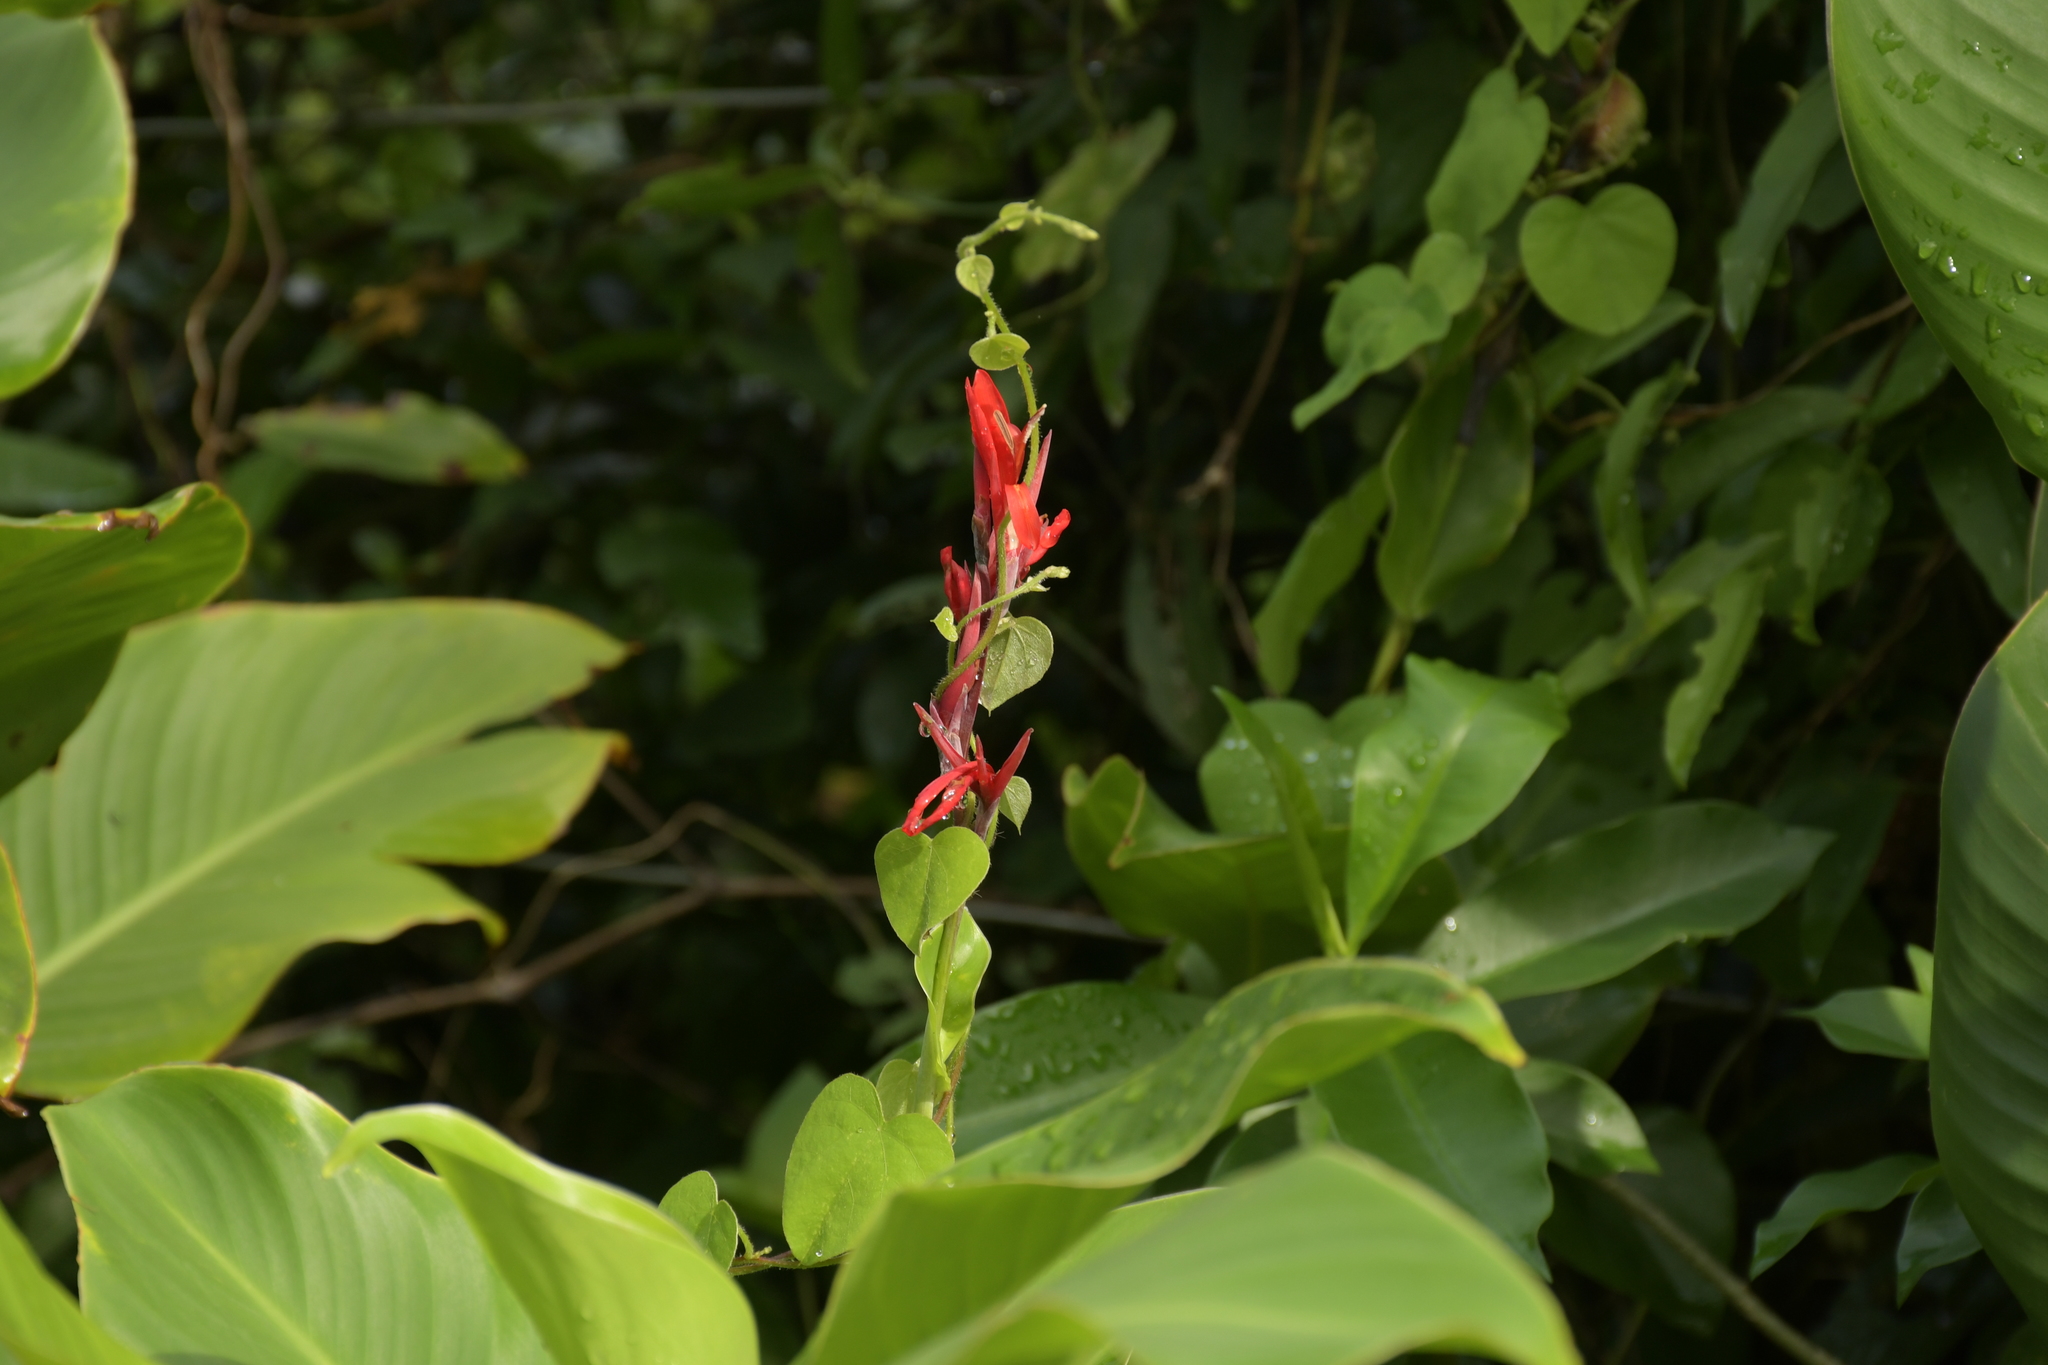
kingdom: Plantae
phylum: Tracheophyta
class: Liliopsida
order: Zingiberales
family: Cannaceae
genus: Canna
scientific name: Canna indica
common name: Indian shot
